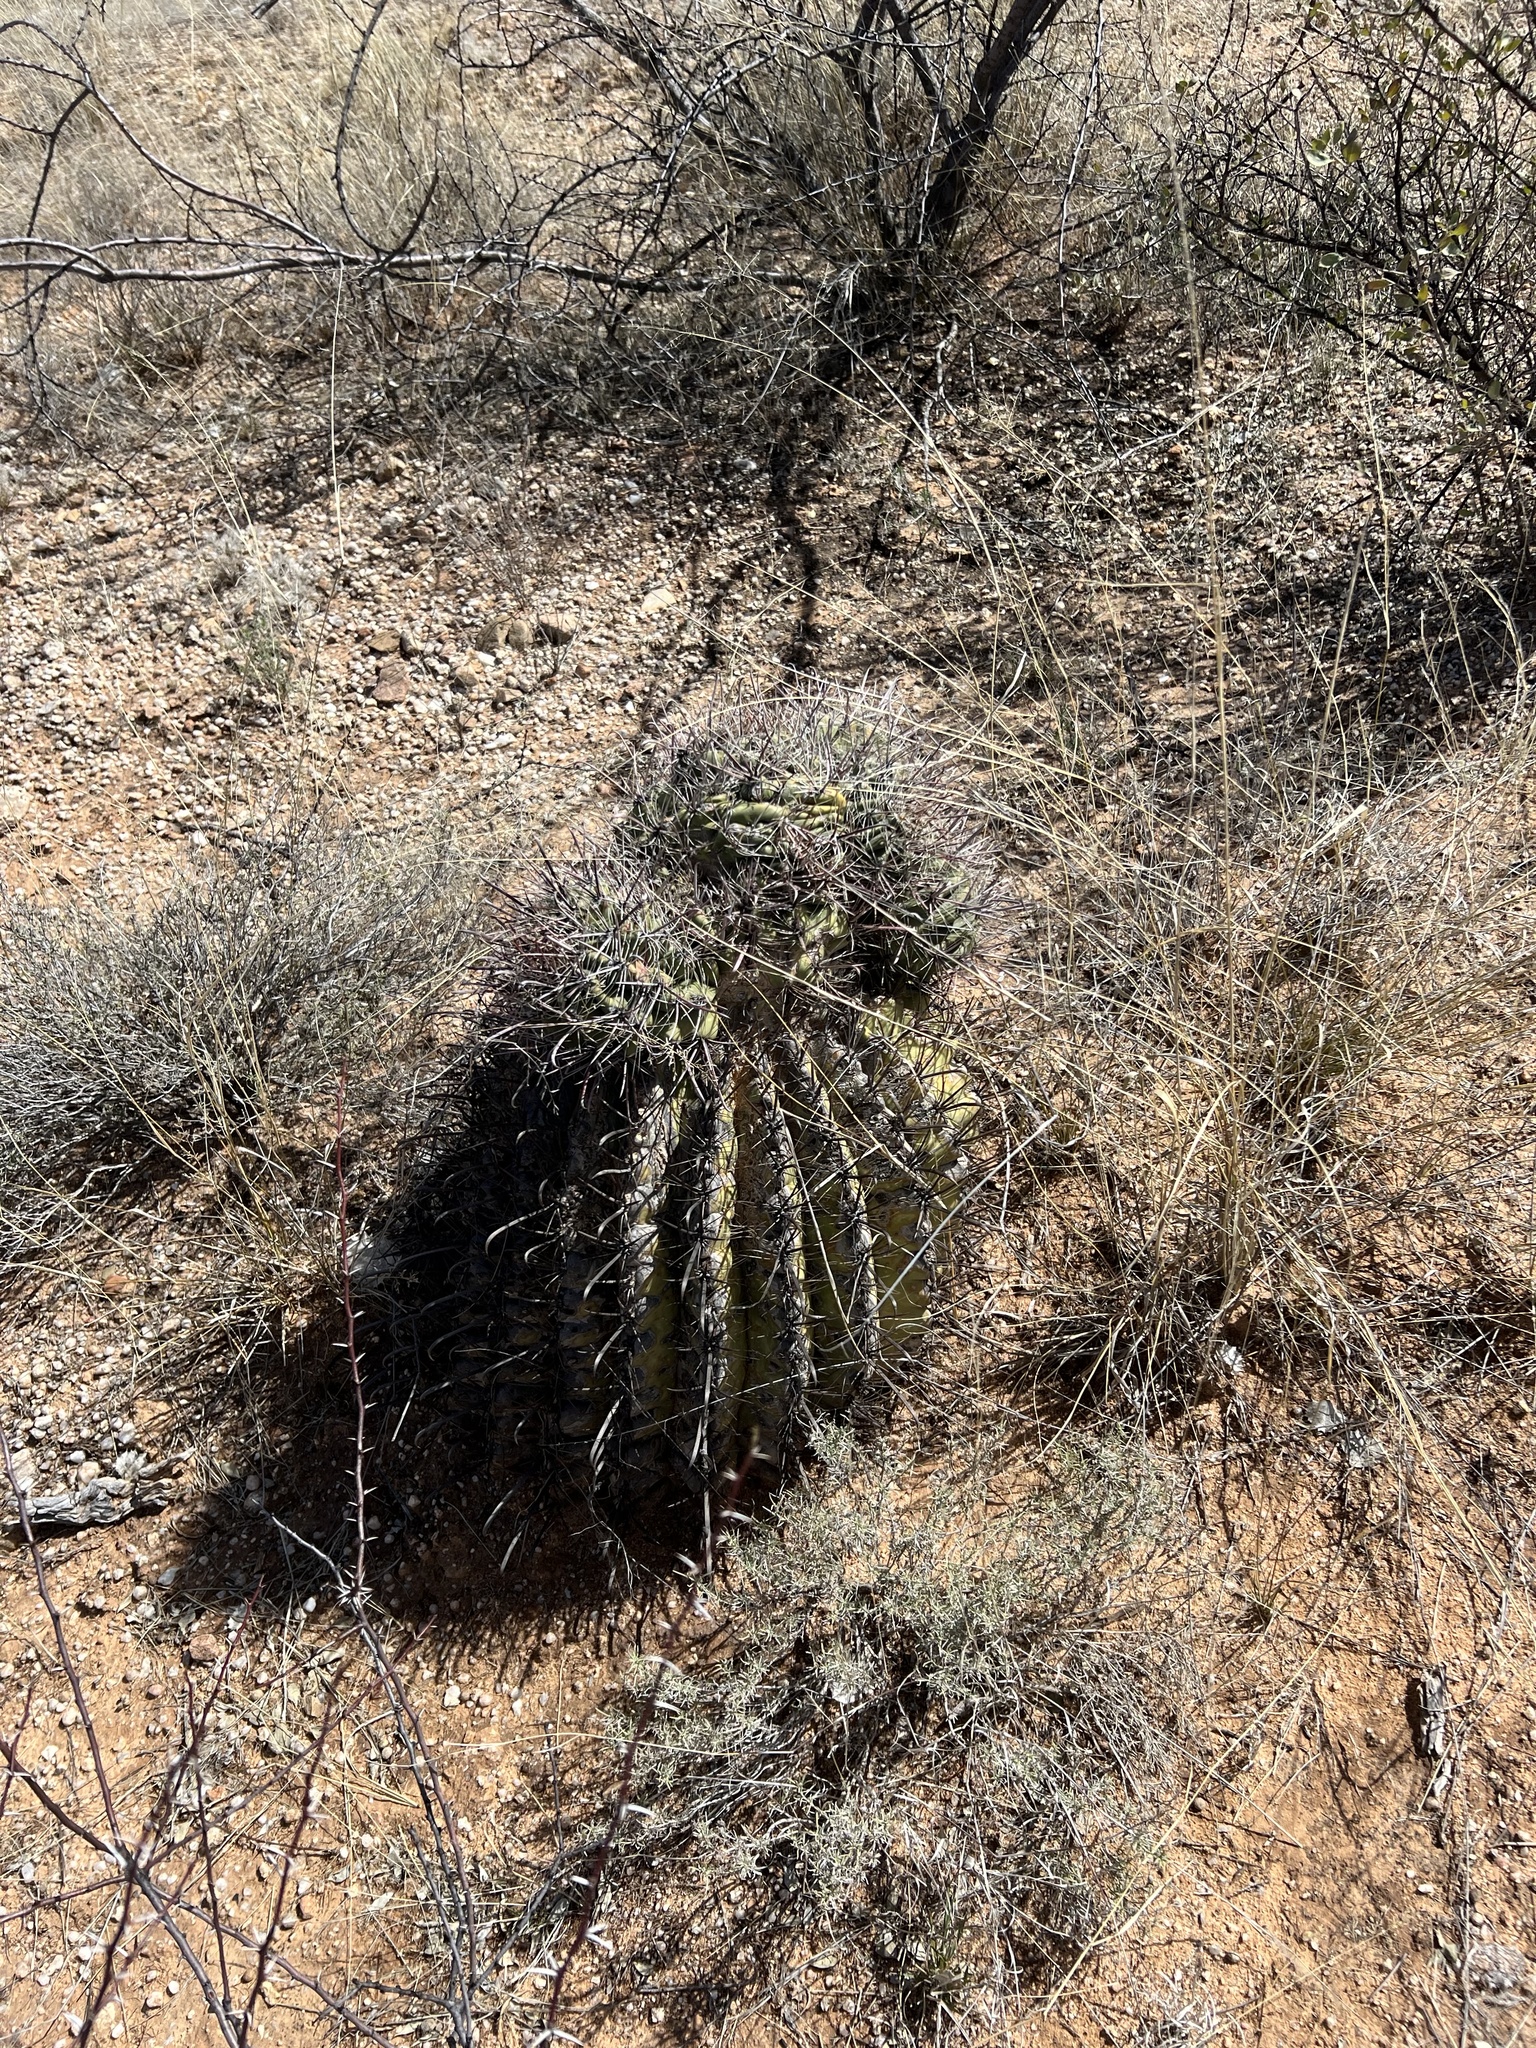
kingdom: Plantae
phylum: Tracheophyta
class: Magnoliopsida
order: Caryophyllales
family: Cactaceae
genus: Ferocactus
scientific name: Ferocactus wislizeni
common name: Candy barrel cactus
